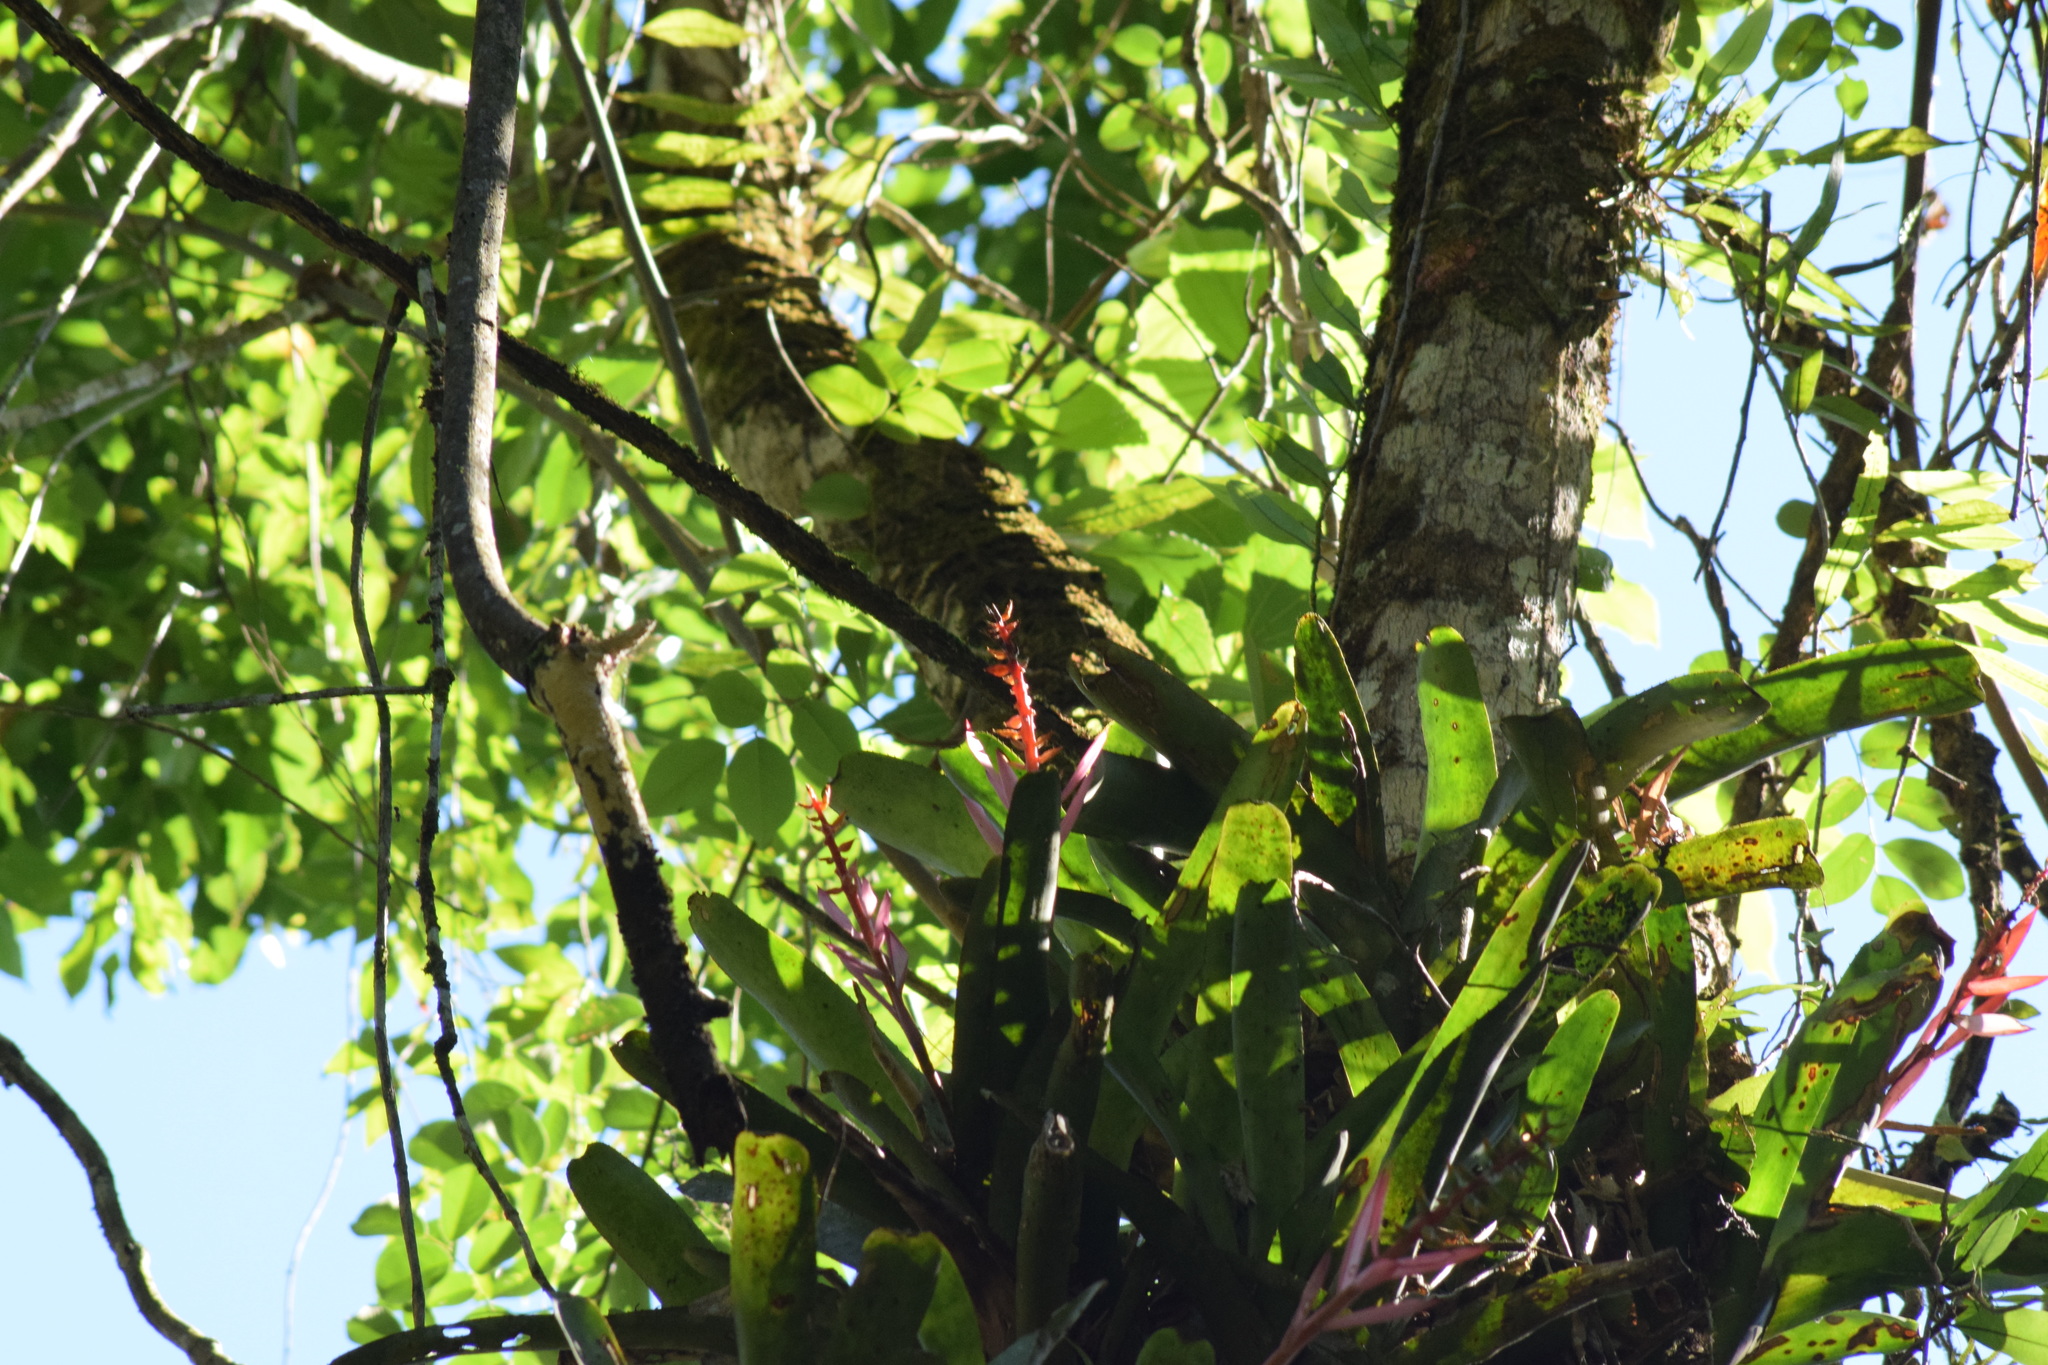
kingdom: Plantae
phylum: Tracheophyta
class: Liliopsida
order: Poales
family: Bromeliaceae
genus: Aechmea
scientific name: Aechmea nudicaulis
